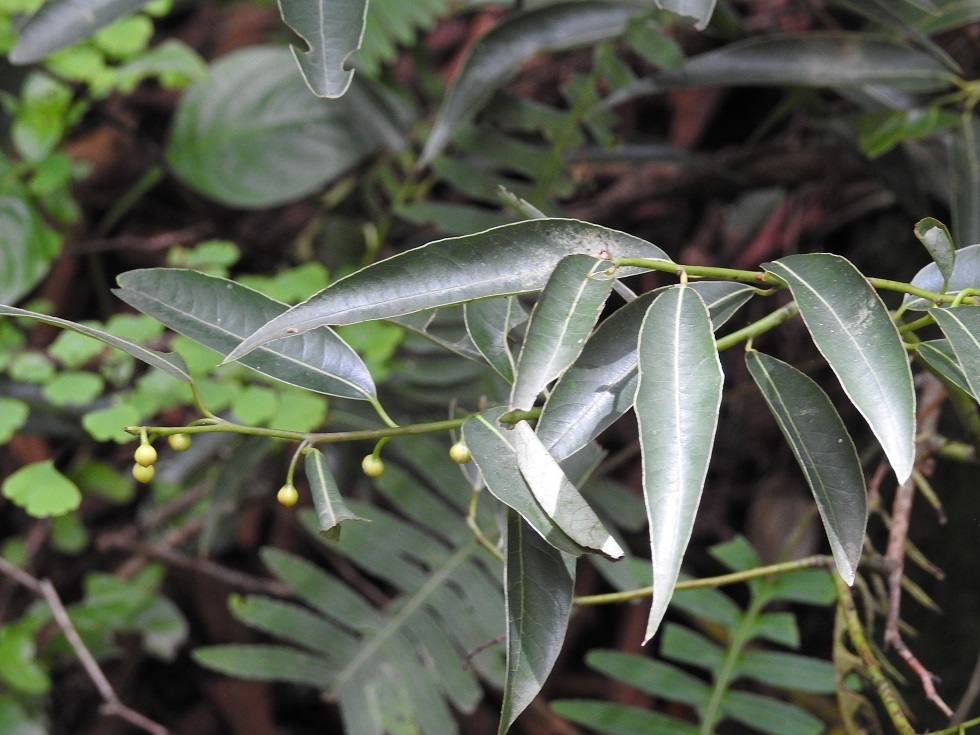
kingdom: Plantae
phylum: Tracheophyta
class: Magnoliopsida
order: Laurales
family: Lauraceae
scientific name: Lauraceae
